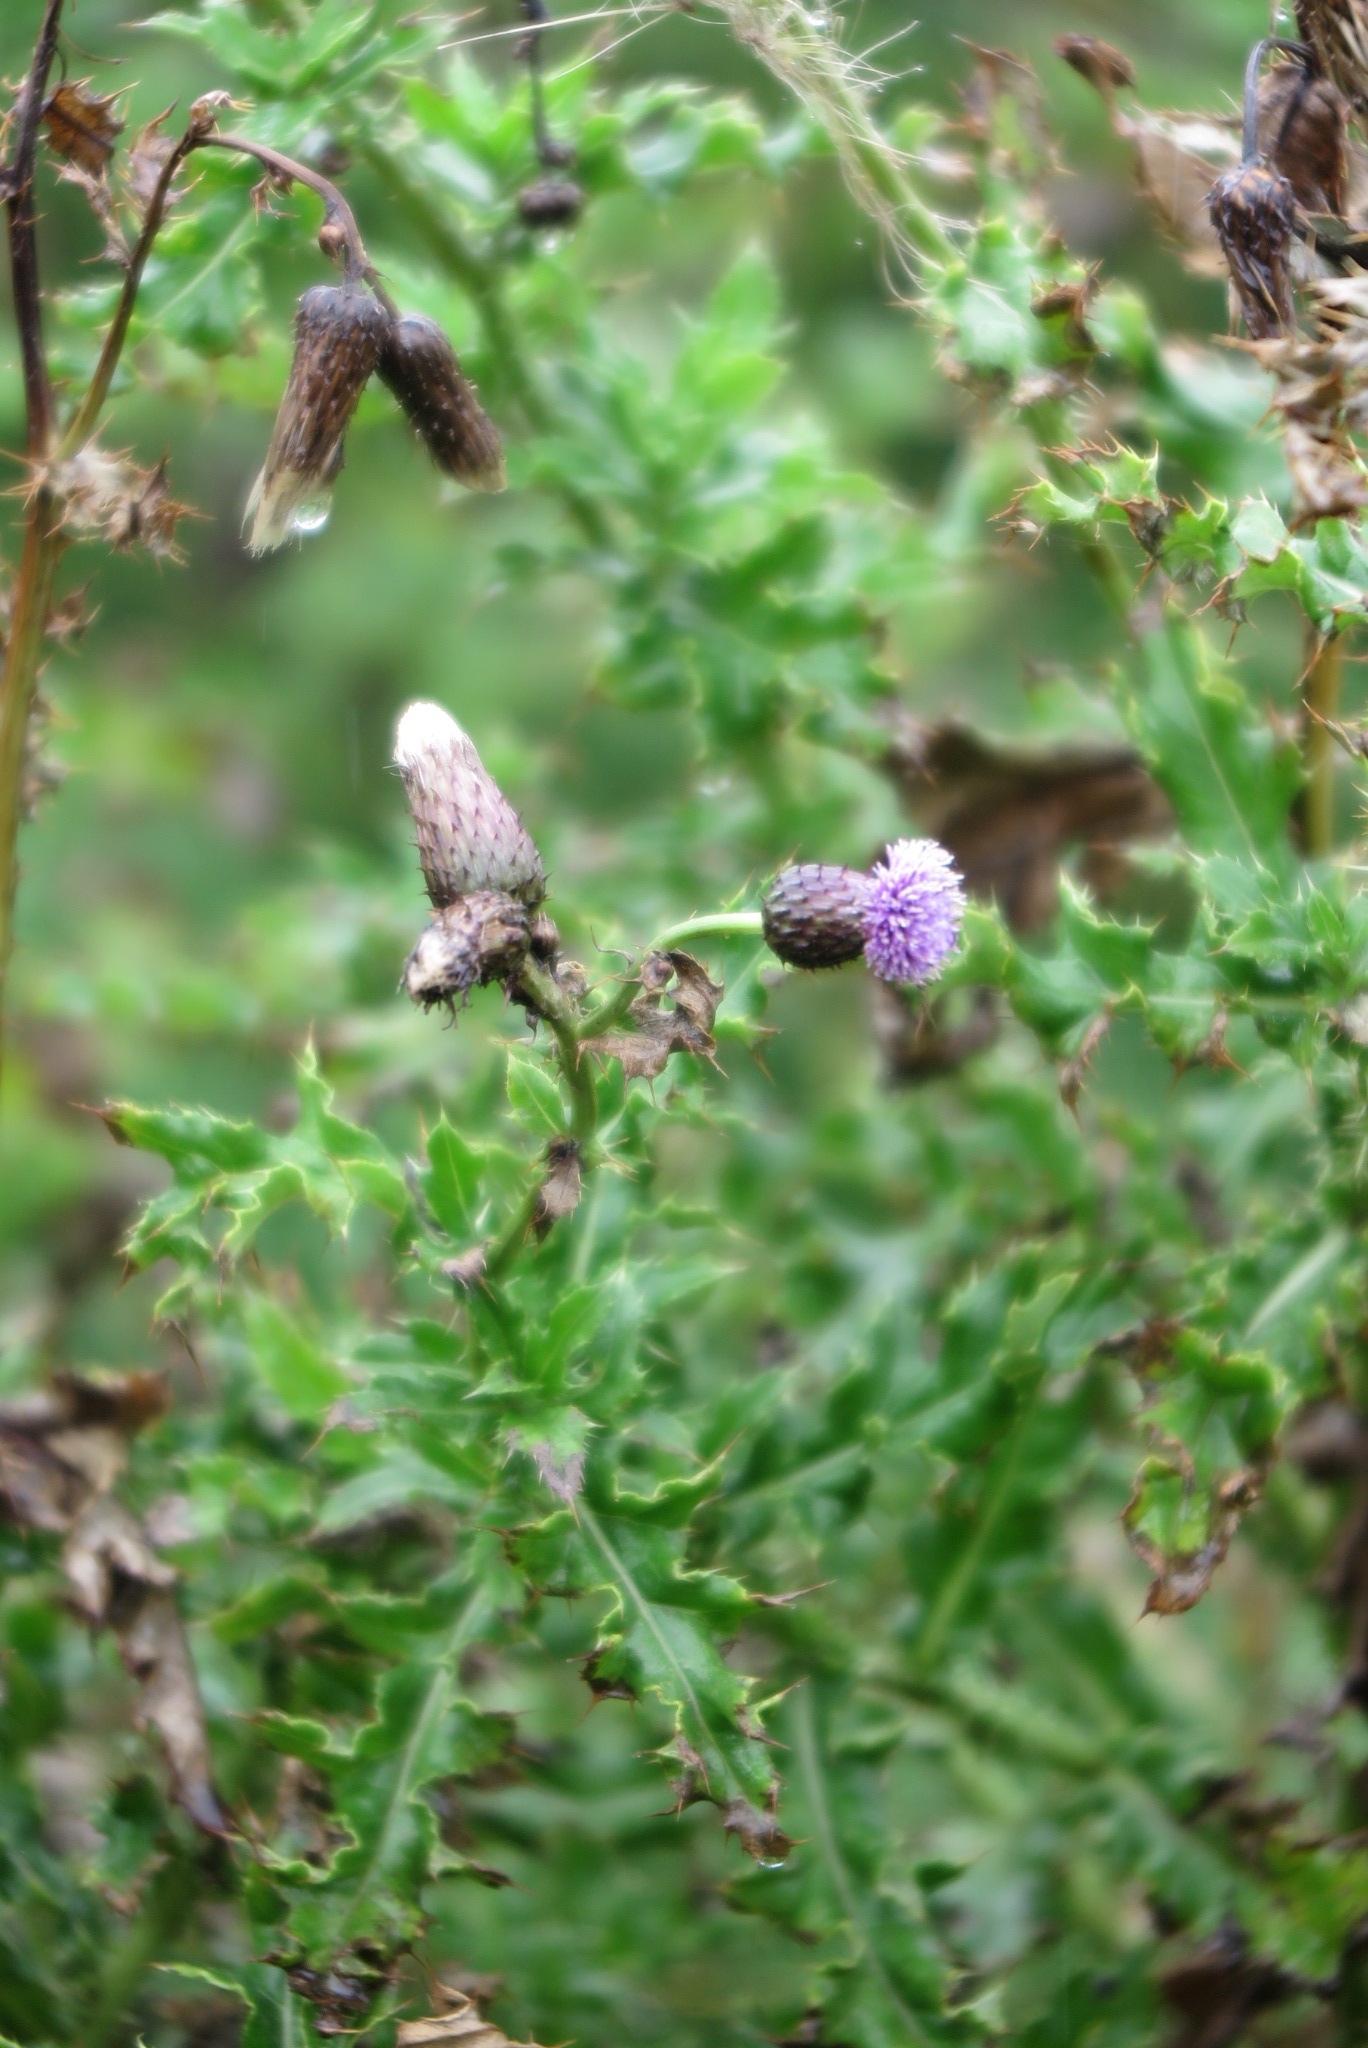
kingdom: Plantae
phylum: Tracheophyta
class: Magnoliopsida
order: Asterales
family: Asteraceae
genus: Cirsium
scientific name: Cirsium arvense
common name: Creeping thistle
